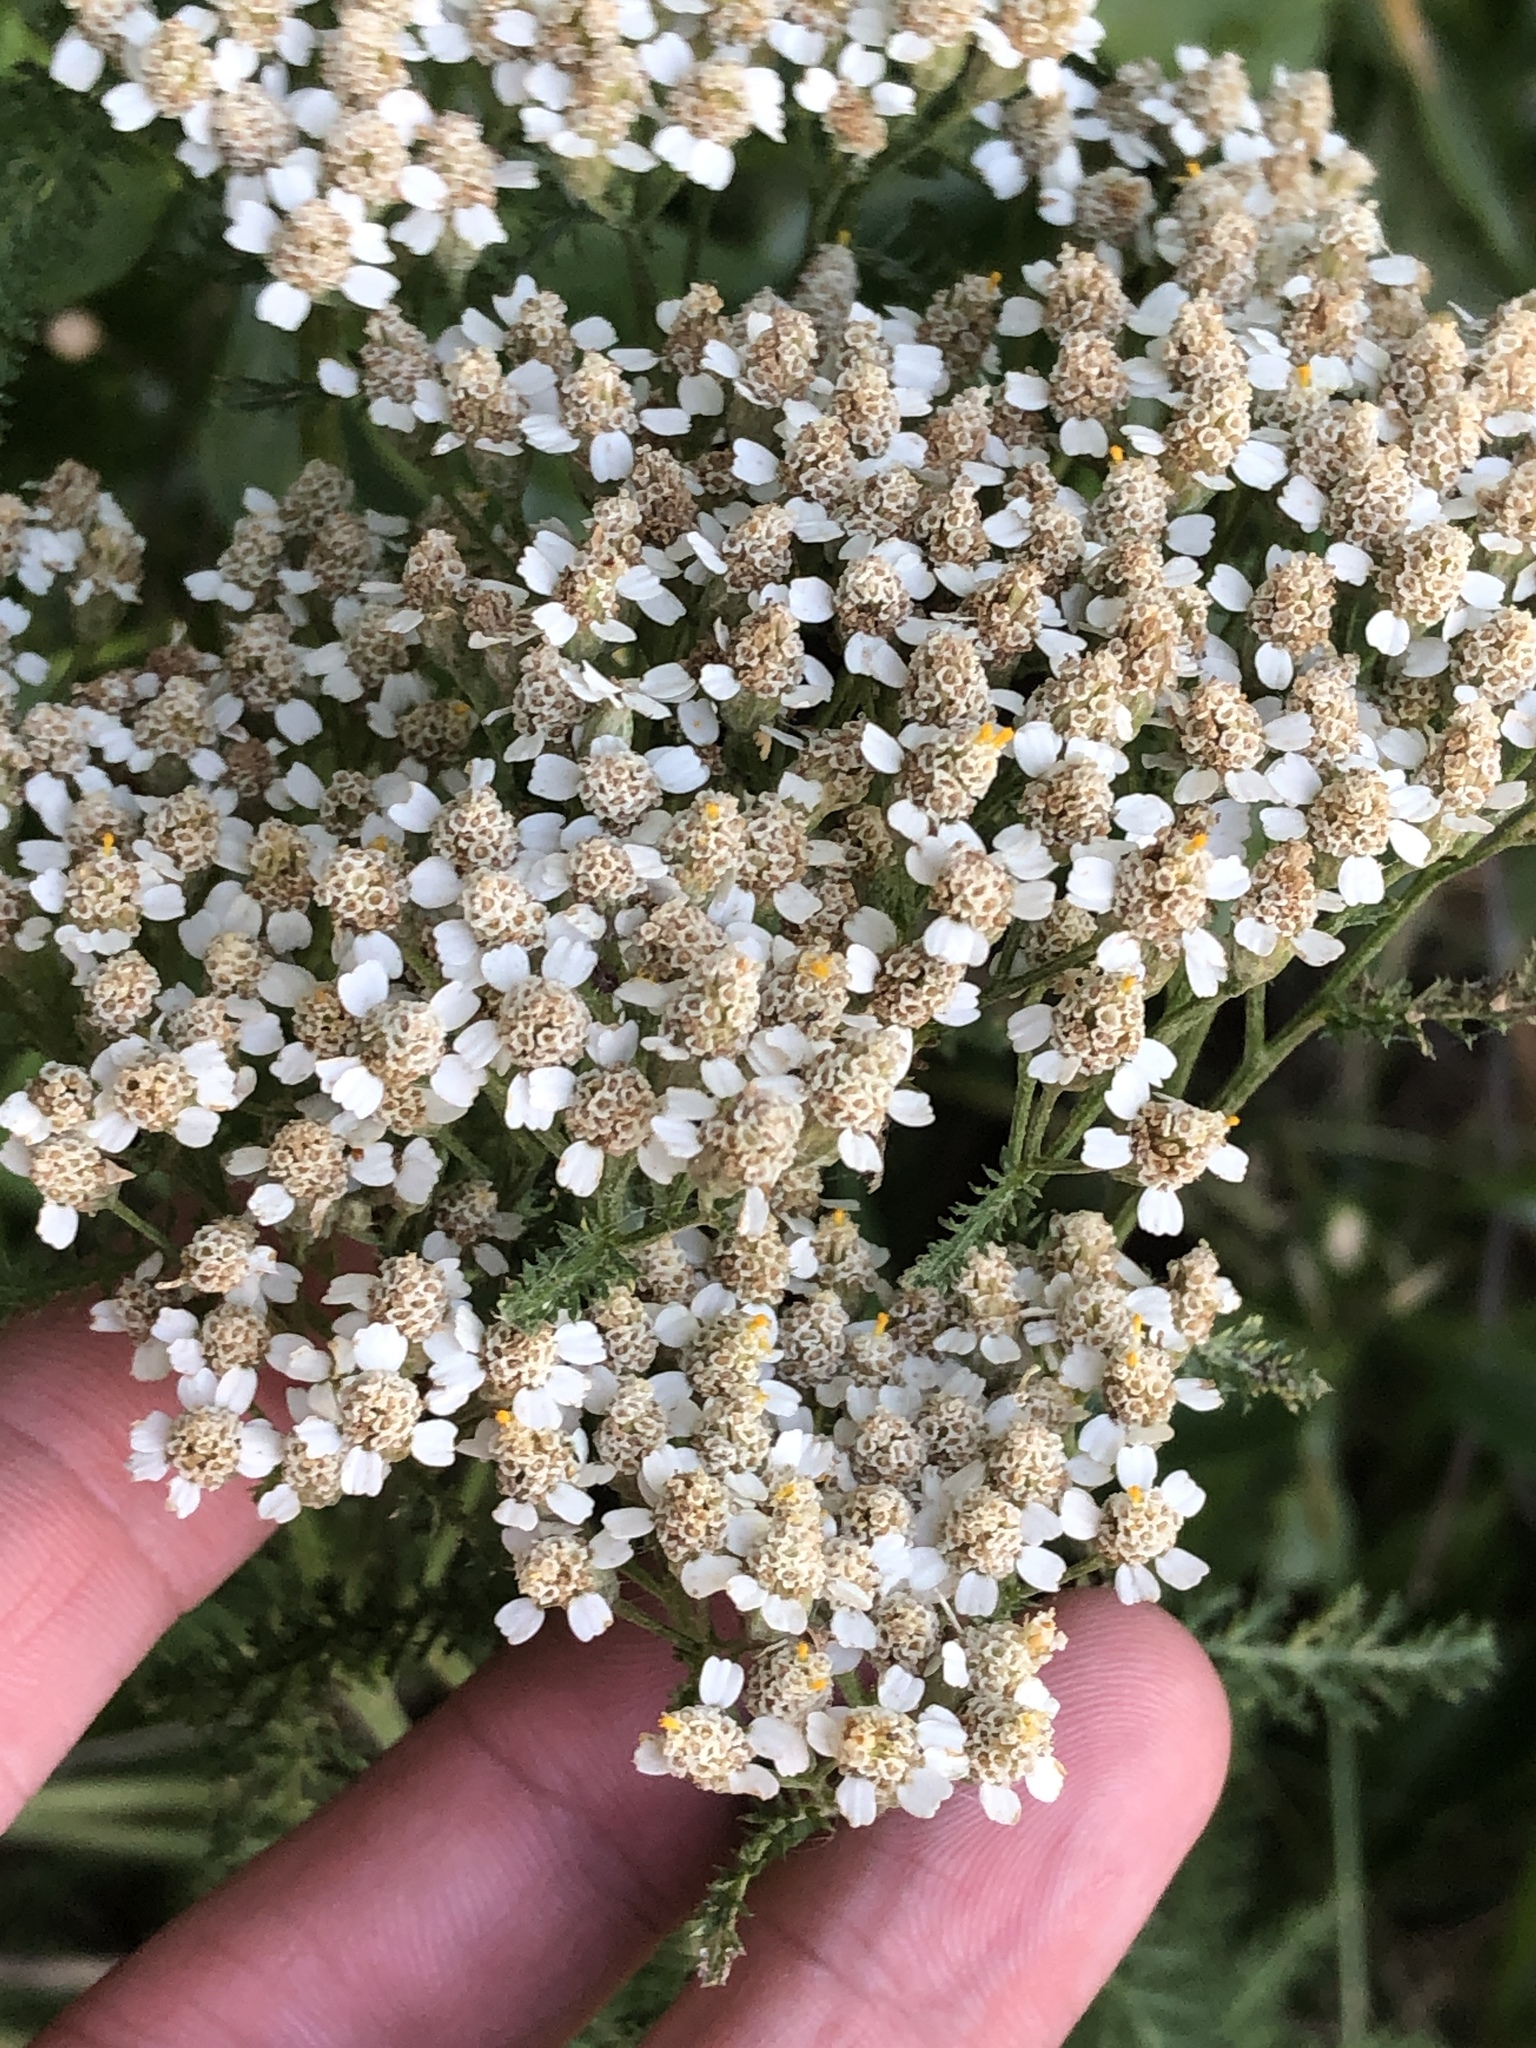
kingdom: Plantae
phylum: Tracheophyta
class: Magnoliopsida
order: Asterales
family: Asteraceae
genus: Achillea
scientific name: Achillea millefolium
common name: Yarrow
